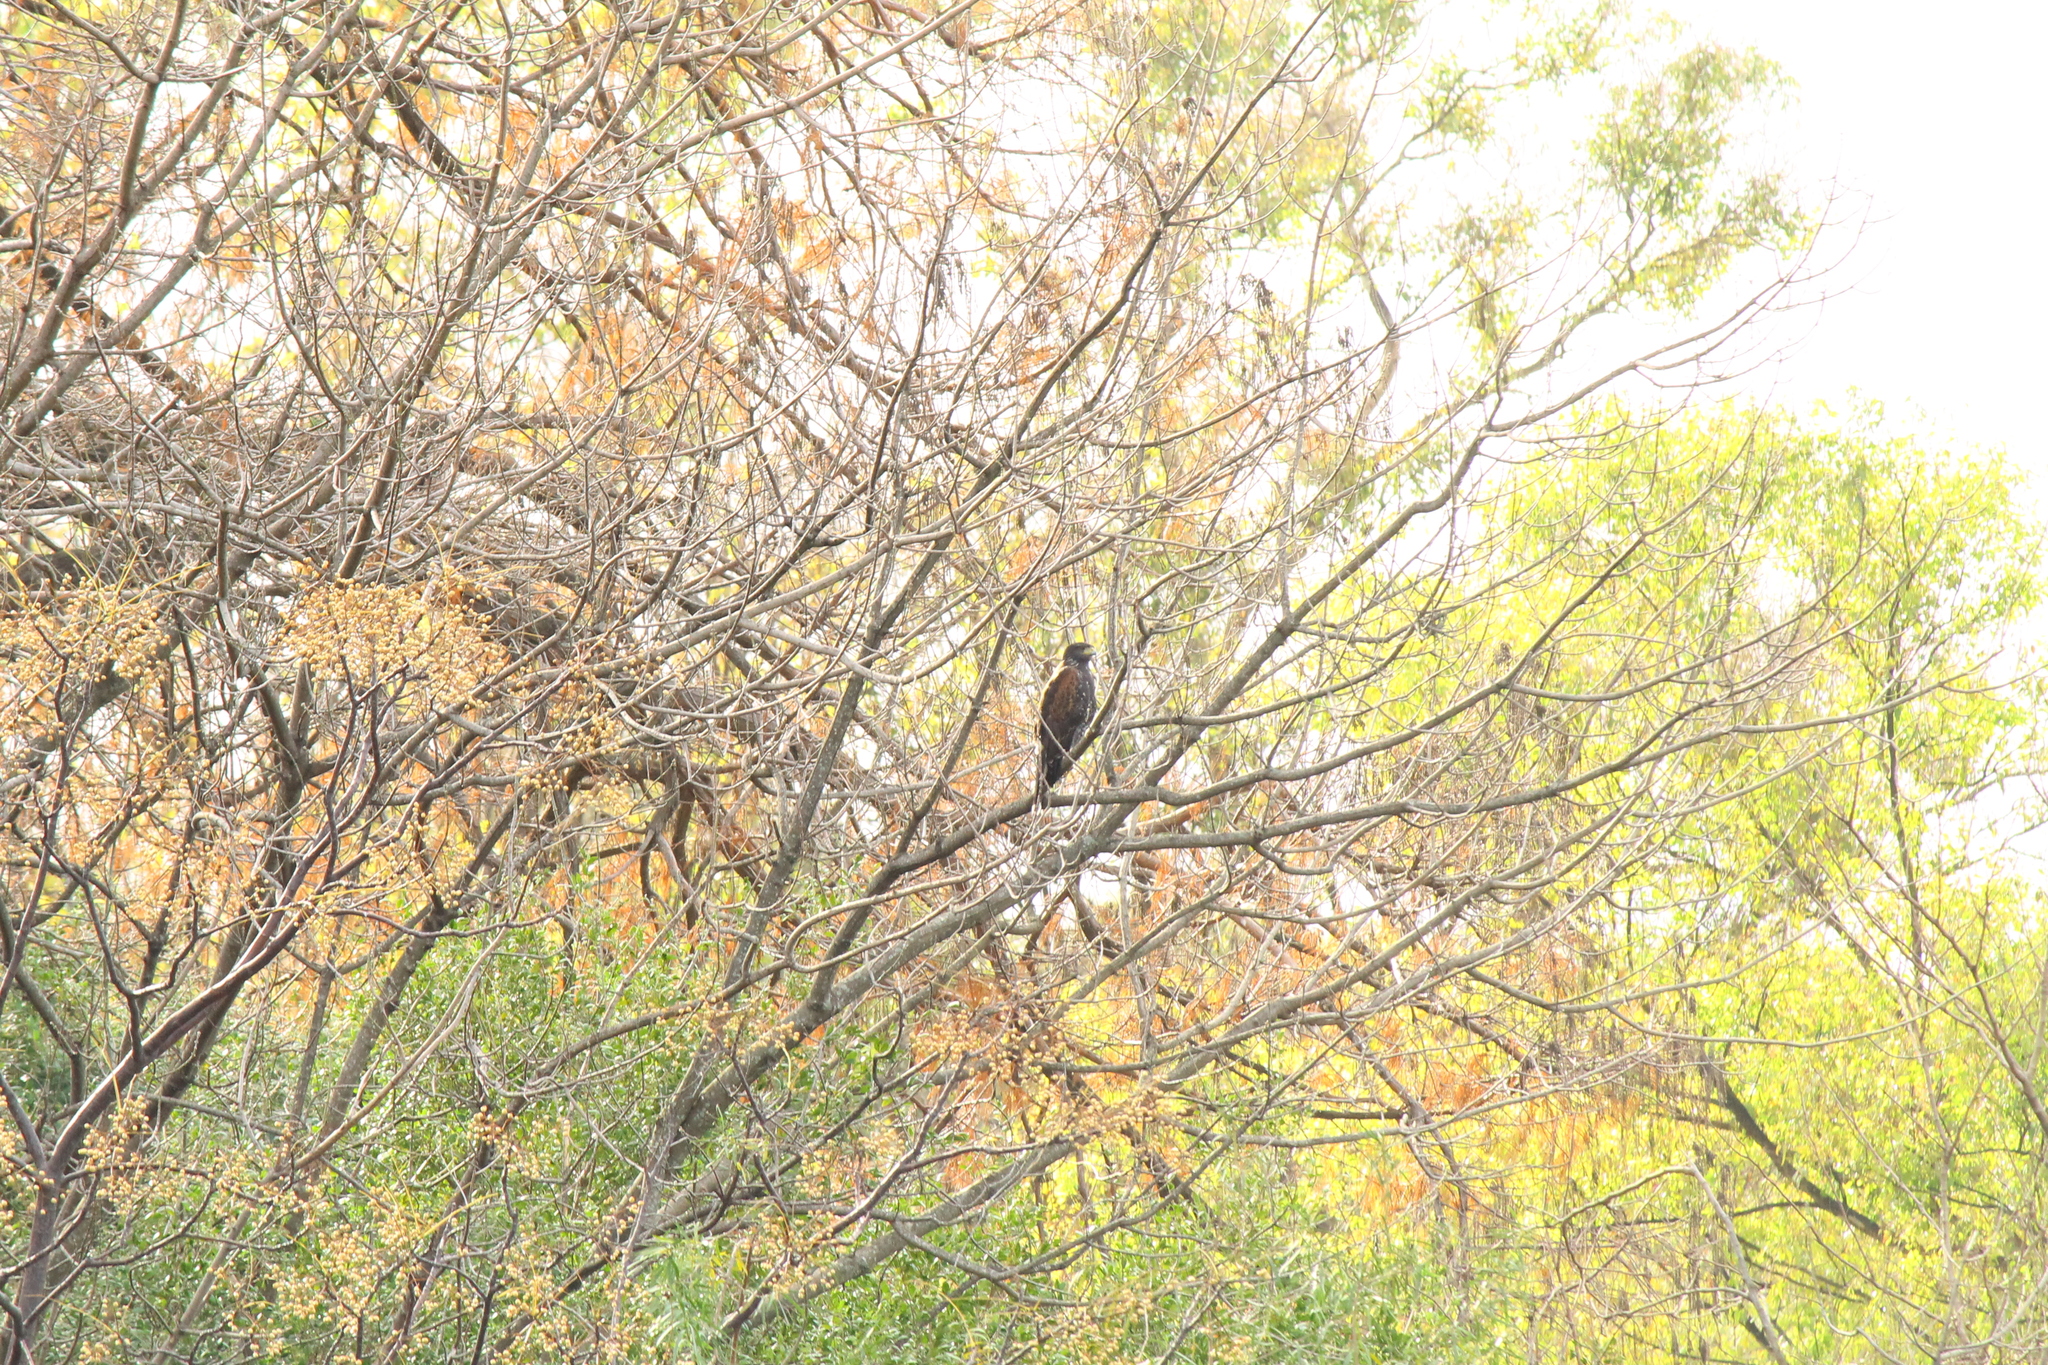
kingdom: Animalia
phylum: Chordata
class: Aves
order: Accipitriformes
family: Accipitridae
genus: Parabuteo
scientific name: Parabuteo unicinctus
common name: Harris's hawk
